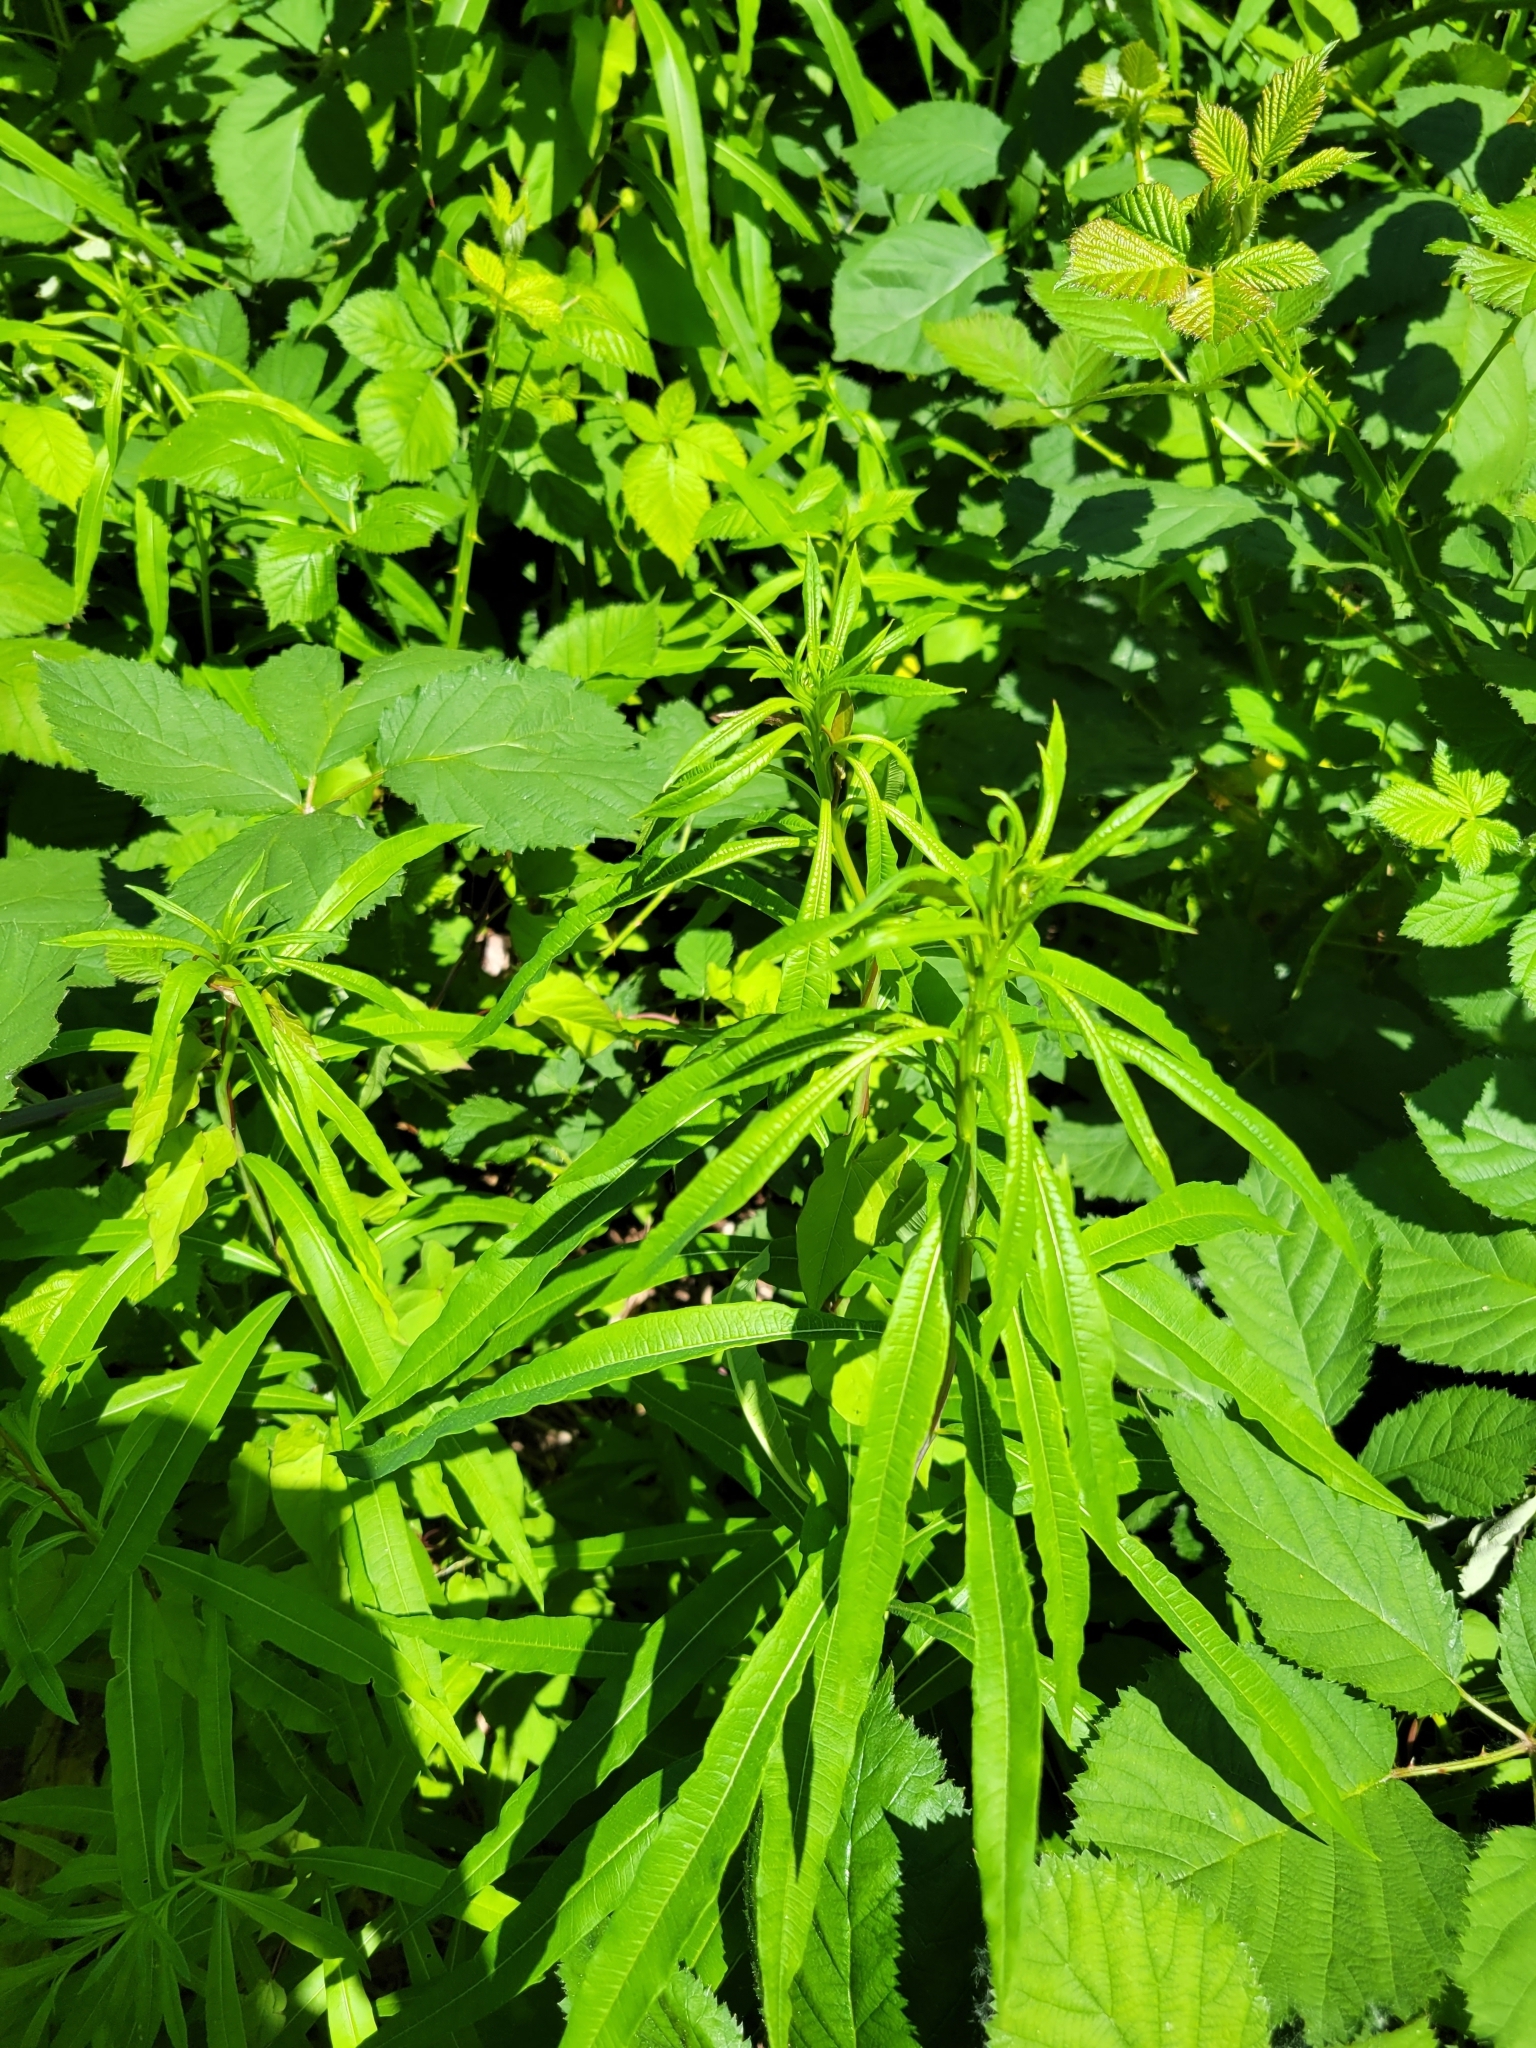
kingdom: Plantae
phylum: Tracheophyta
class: Magnoliopsida
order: Myrtales
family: Onagraceae
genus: Chamaenerion
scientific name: Chamaenerion angustifolium
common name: Fireweed
